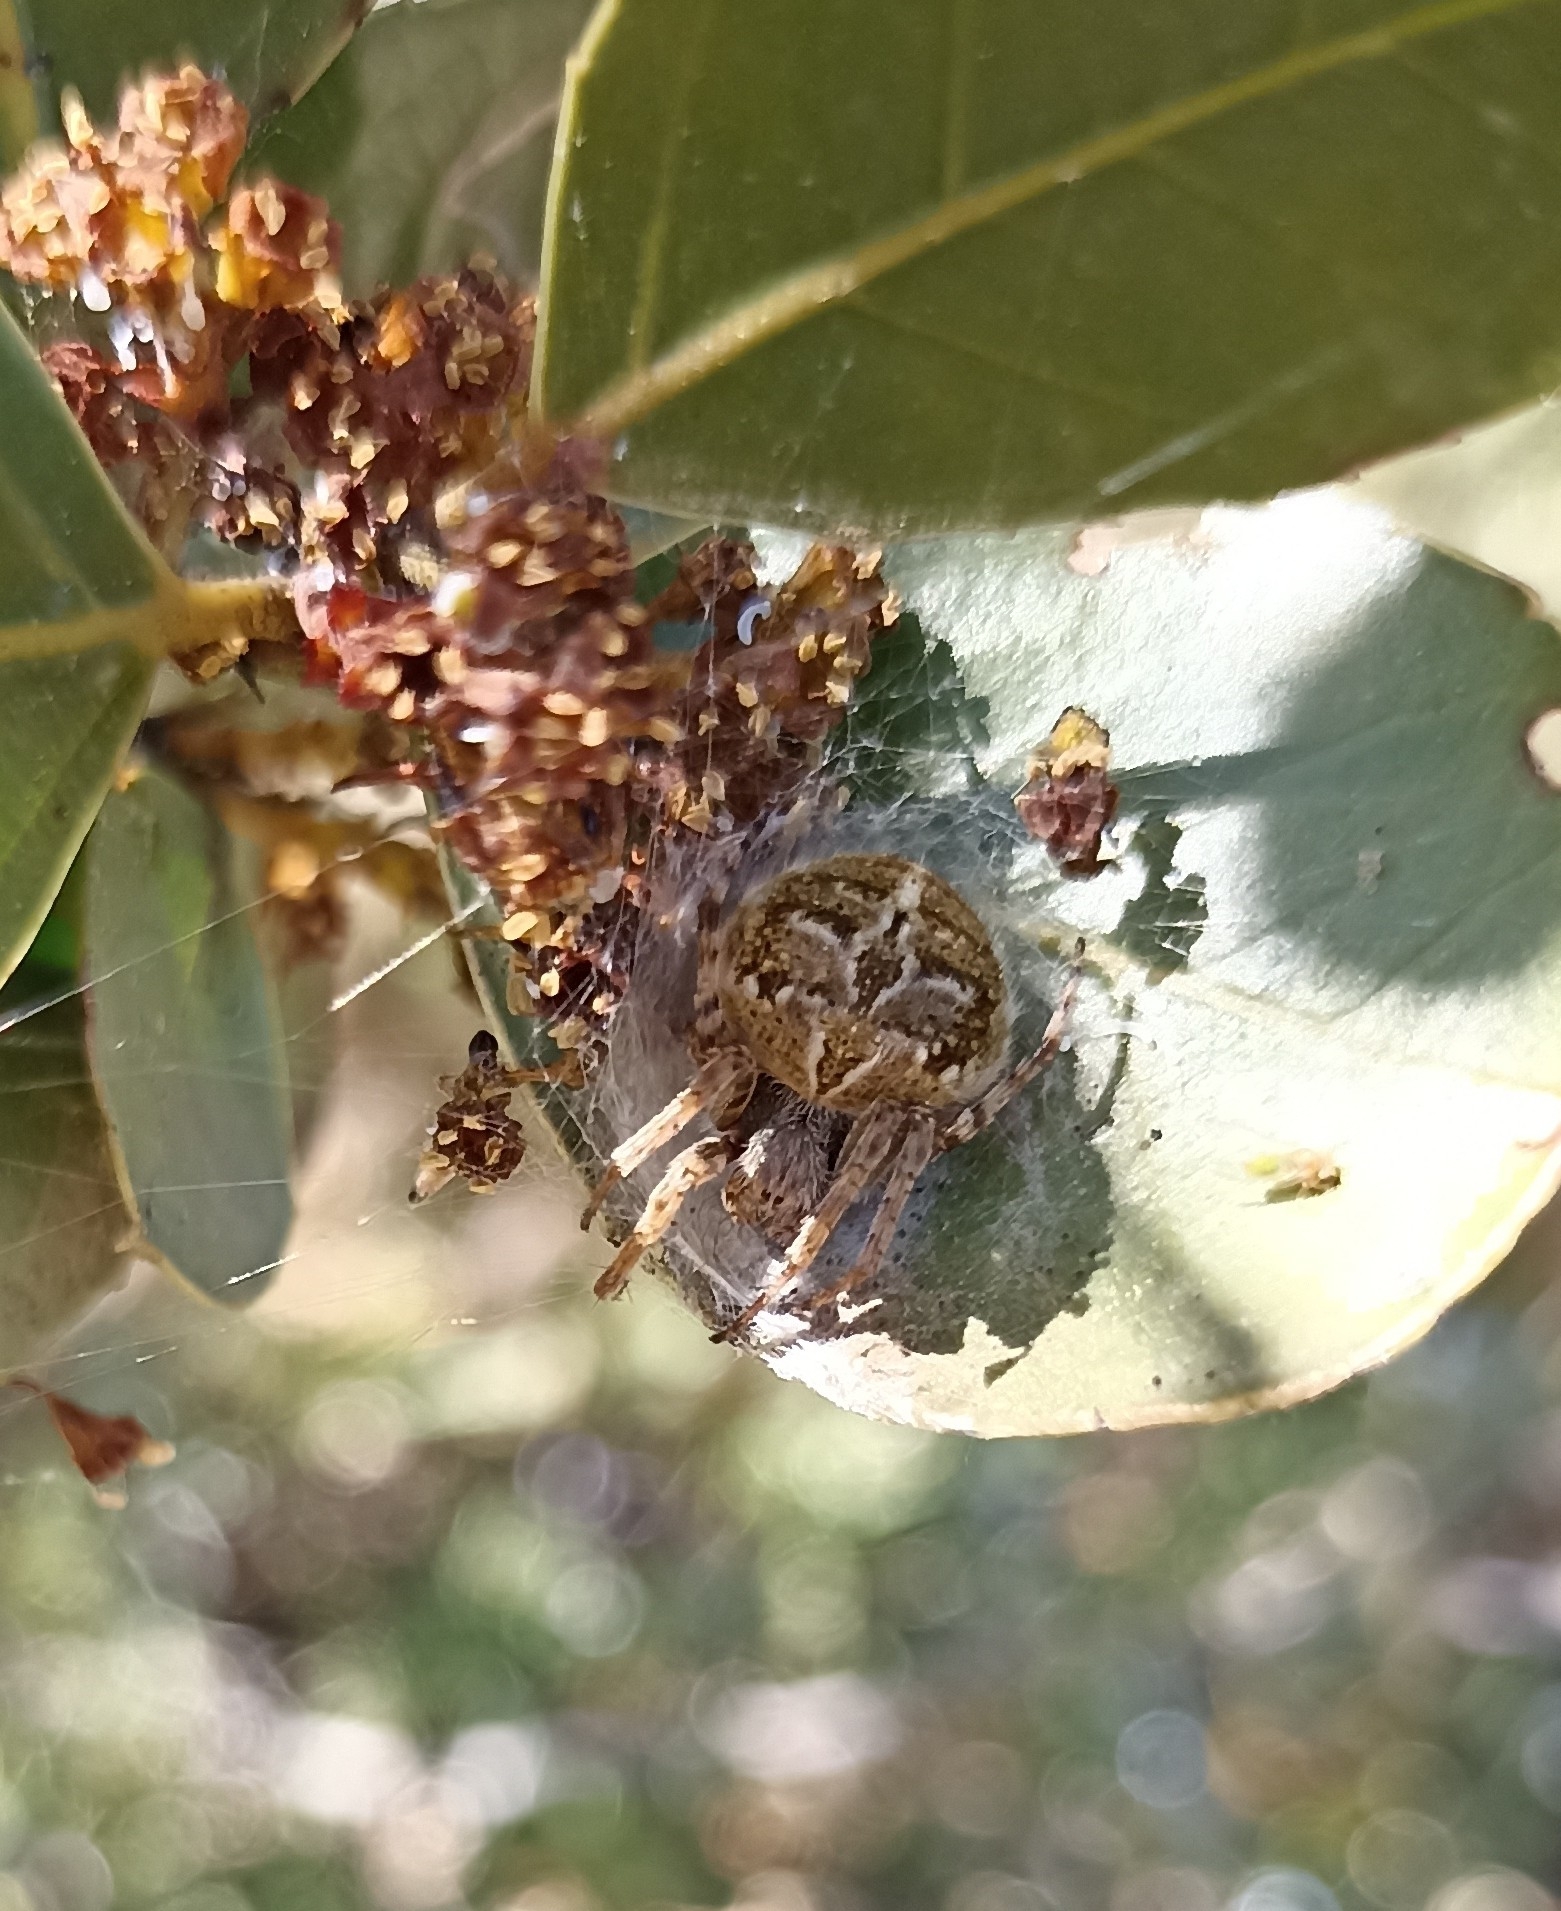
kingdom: Animalia
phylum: Arthropoda
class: Arachnida
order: Araneae
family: Araneidae
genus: Agalenatea
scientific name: Agalenatea redii
